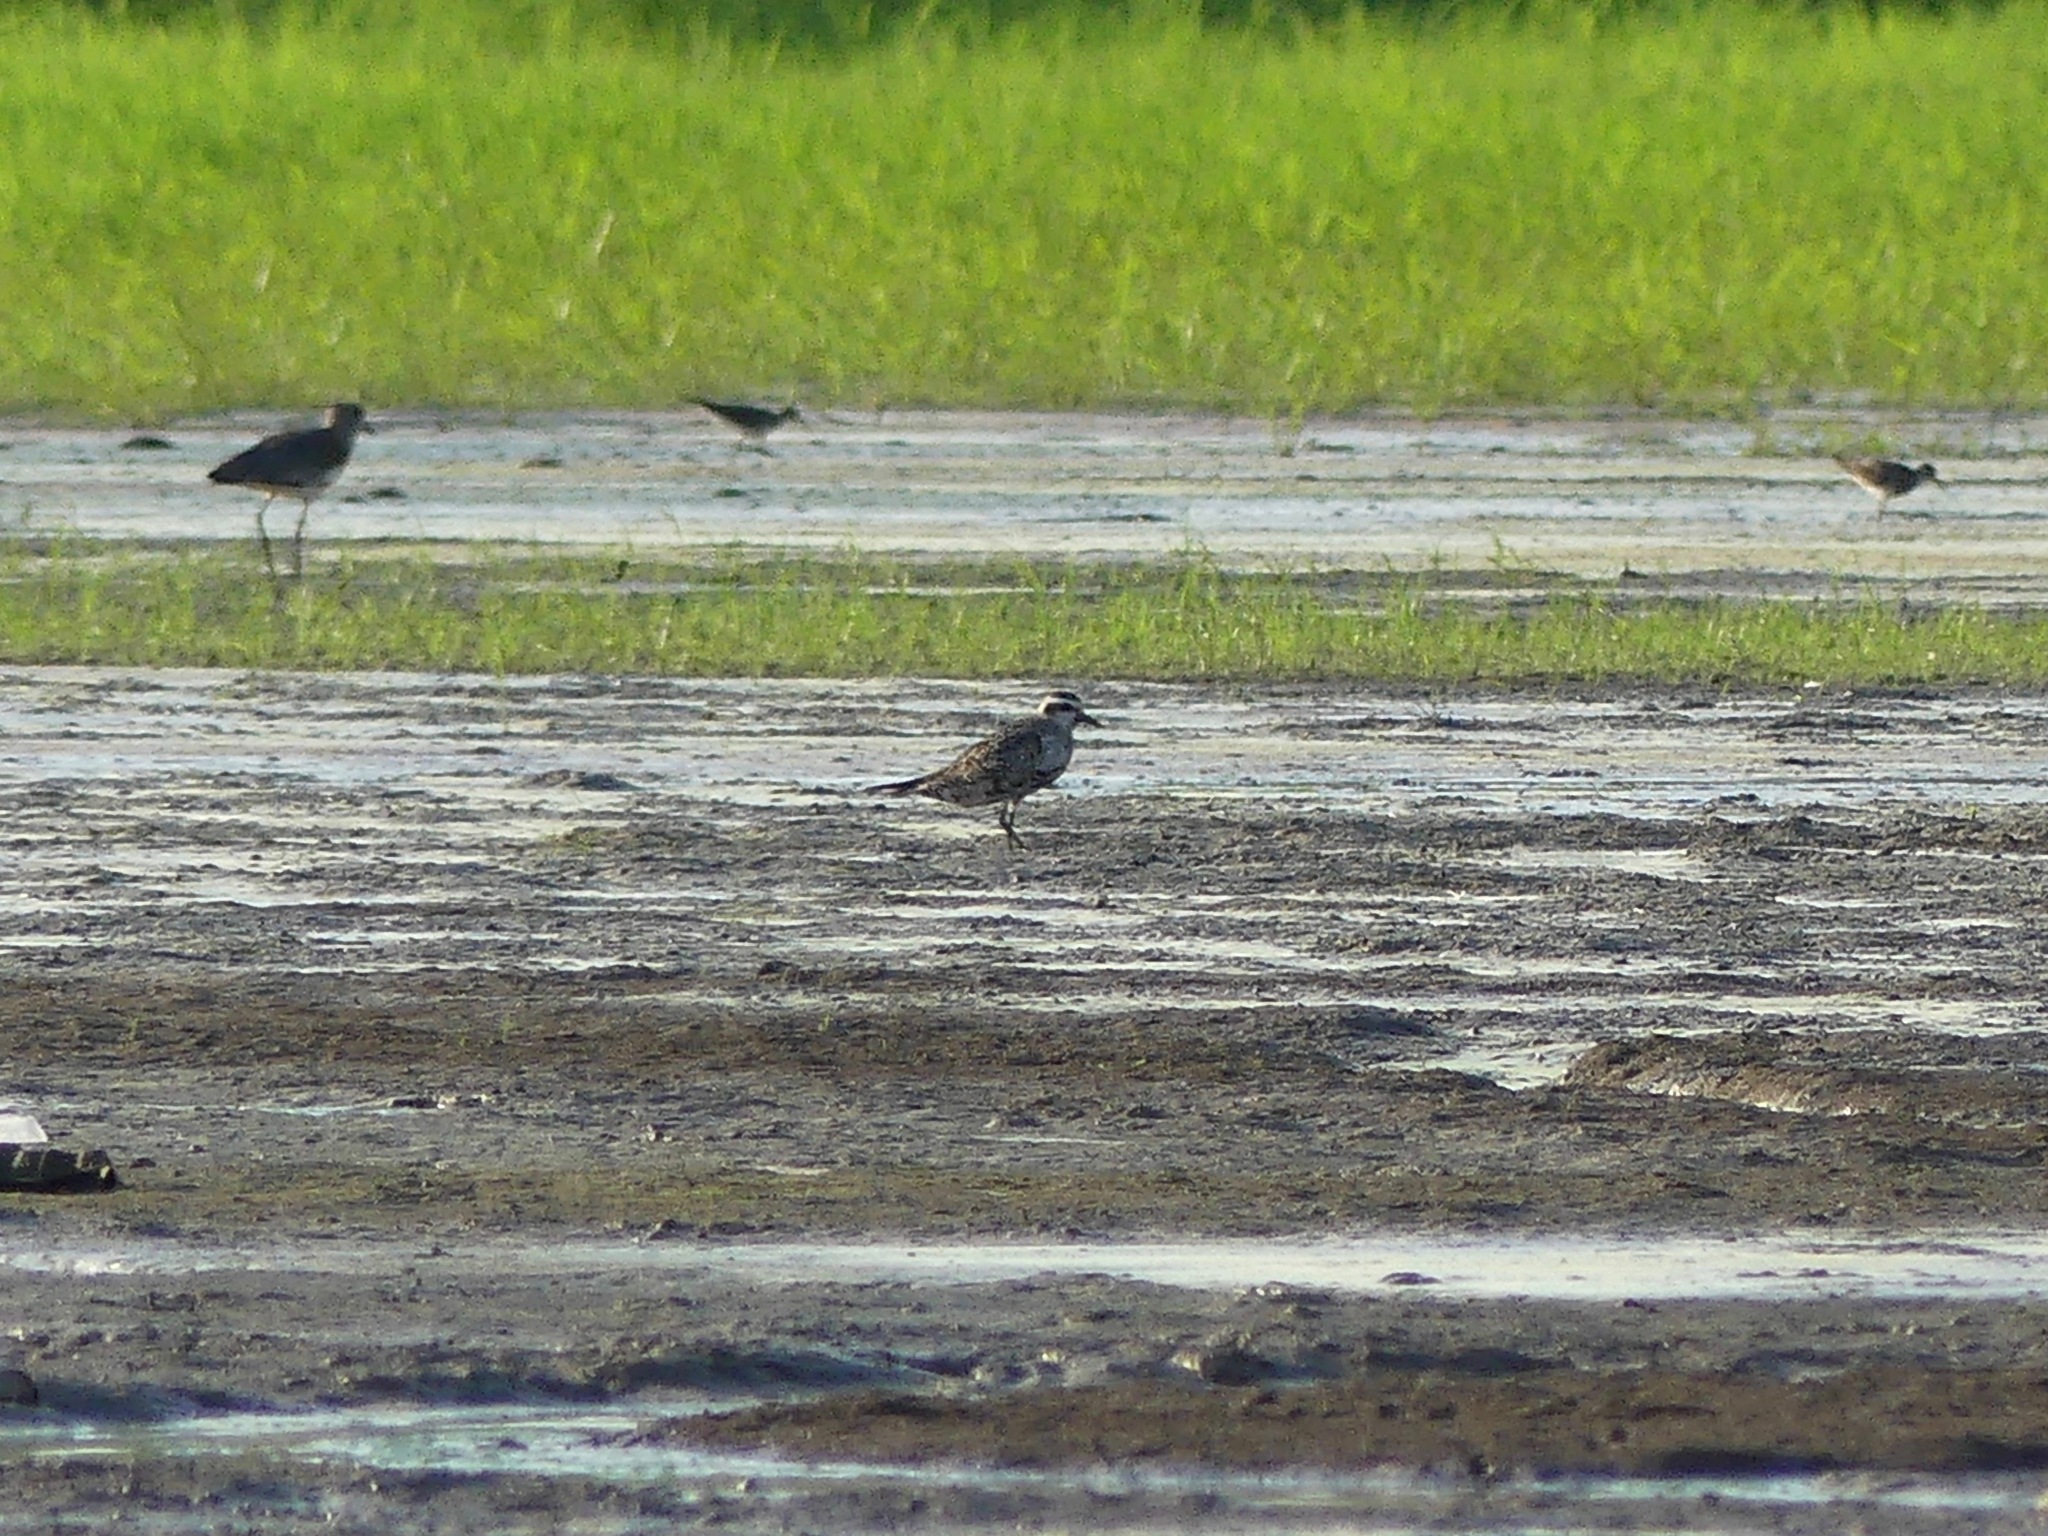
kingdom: Animalia
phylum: Chordata
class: Aves
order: Charadriiformes
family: Charadriidae
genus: Pluvialis
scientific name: Pluvialis dominica
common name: American golden plover
